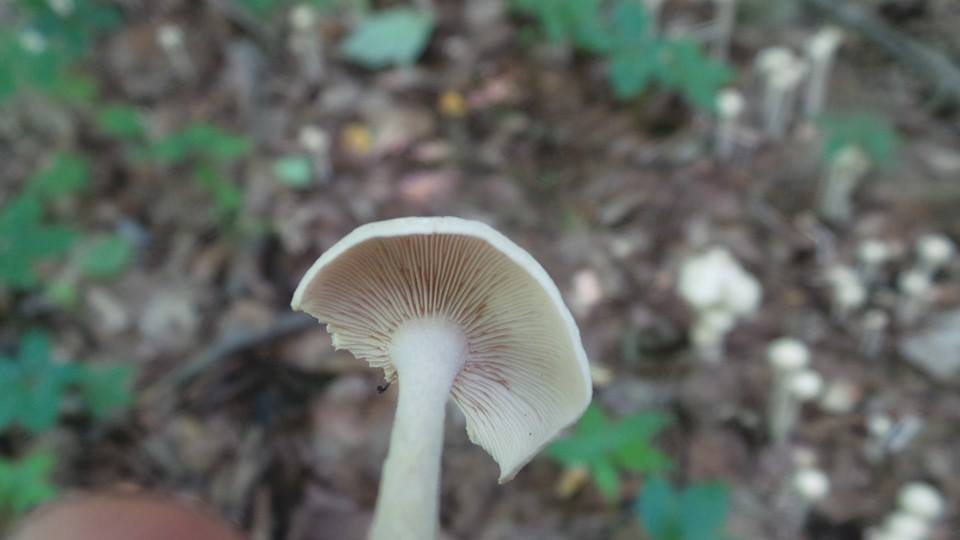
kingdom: Fungi
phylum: Basidiomycota
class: Agaricomycetes
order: Agaricales
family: Omphalotaceae
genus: Collybiopsis
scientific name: Collybiopsis confluens
